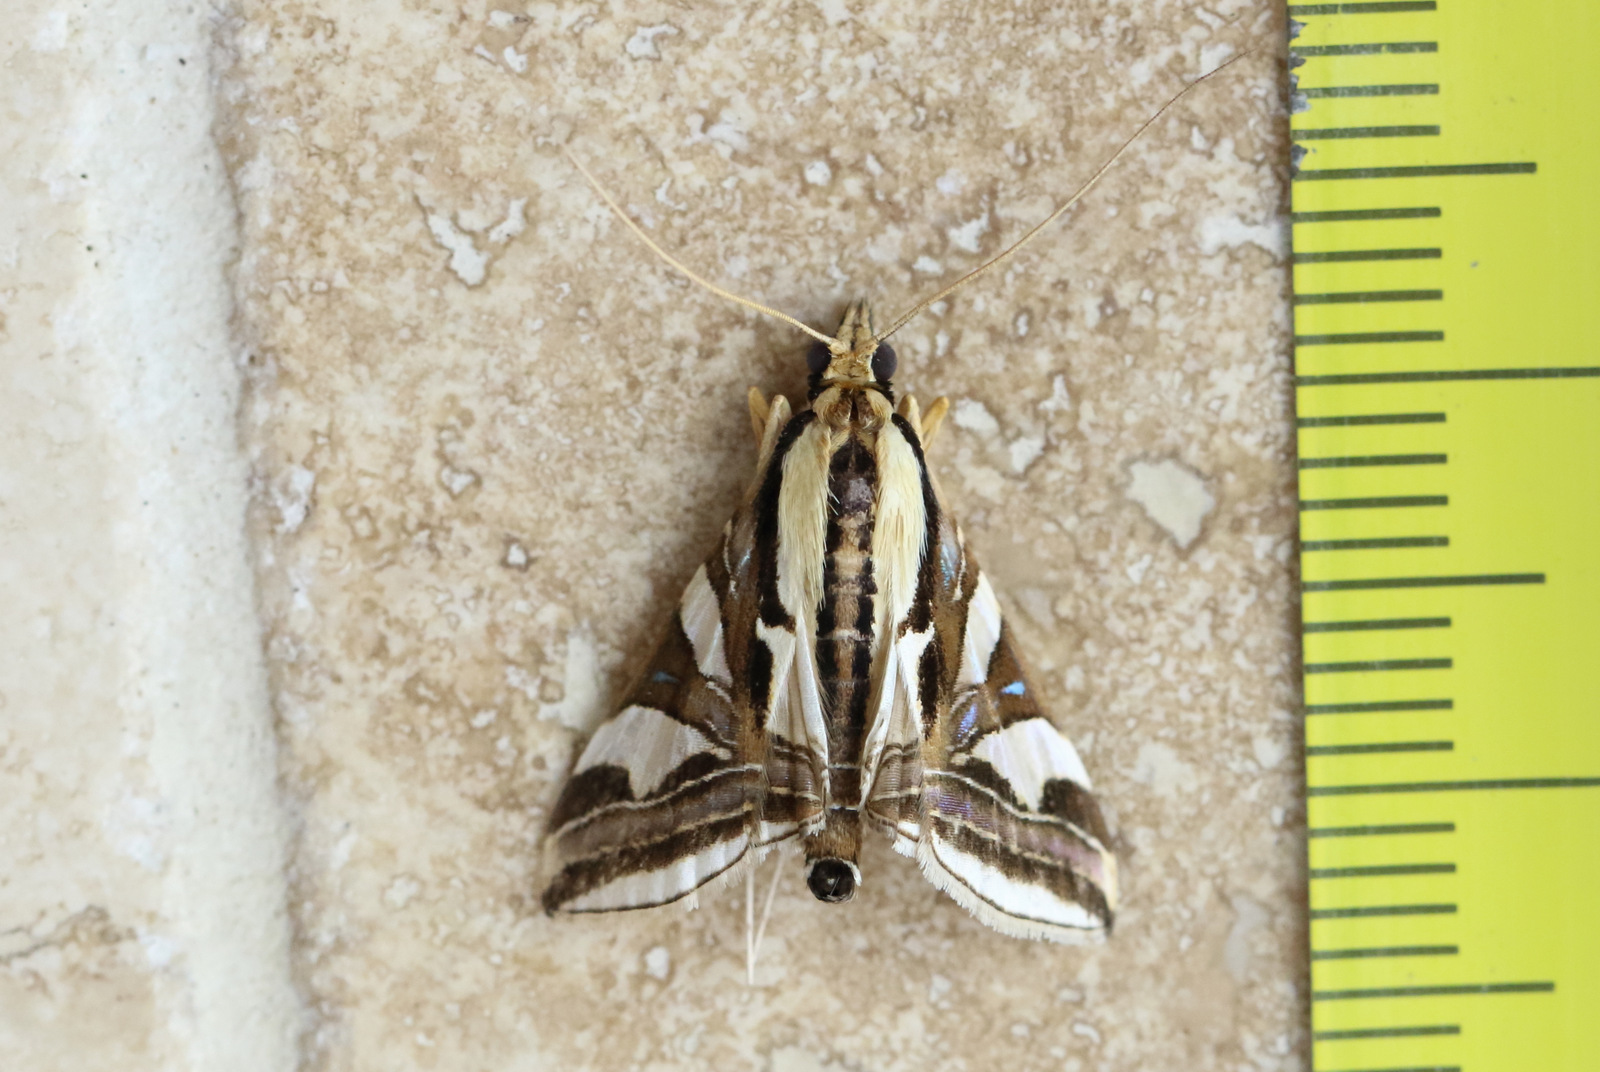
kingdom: Animalia
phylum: Arthropoda
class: Insecta
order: Lepidoptera
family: Crambidae
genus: Agrioglypta
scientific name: Agrioglypta excelsalis
